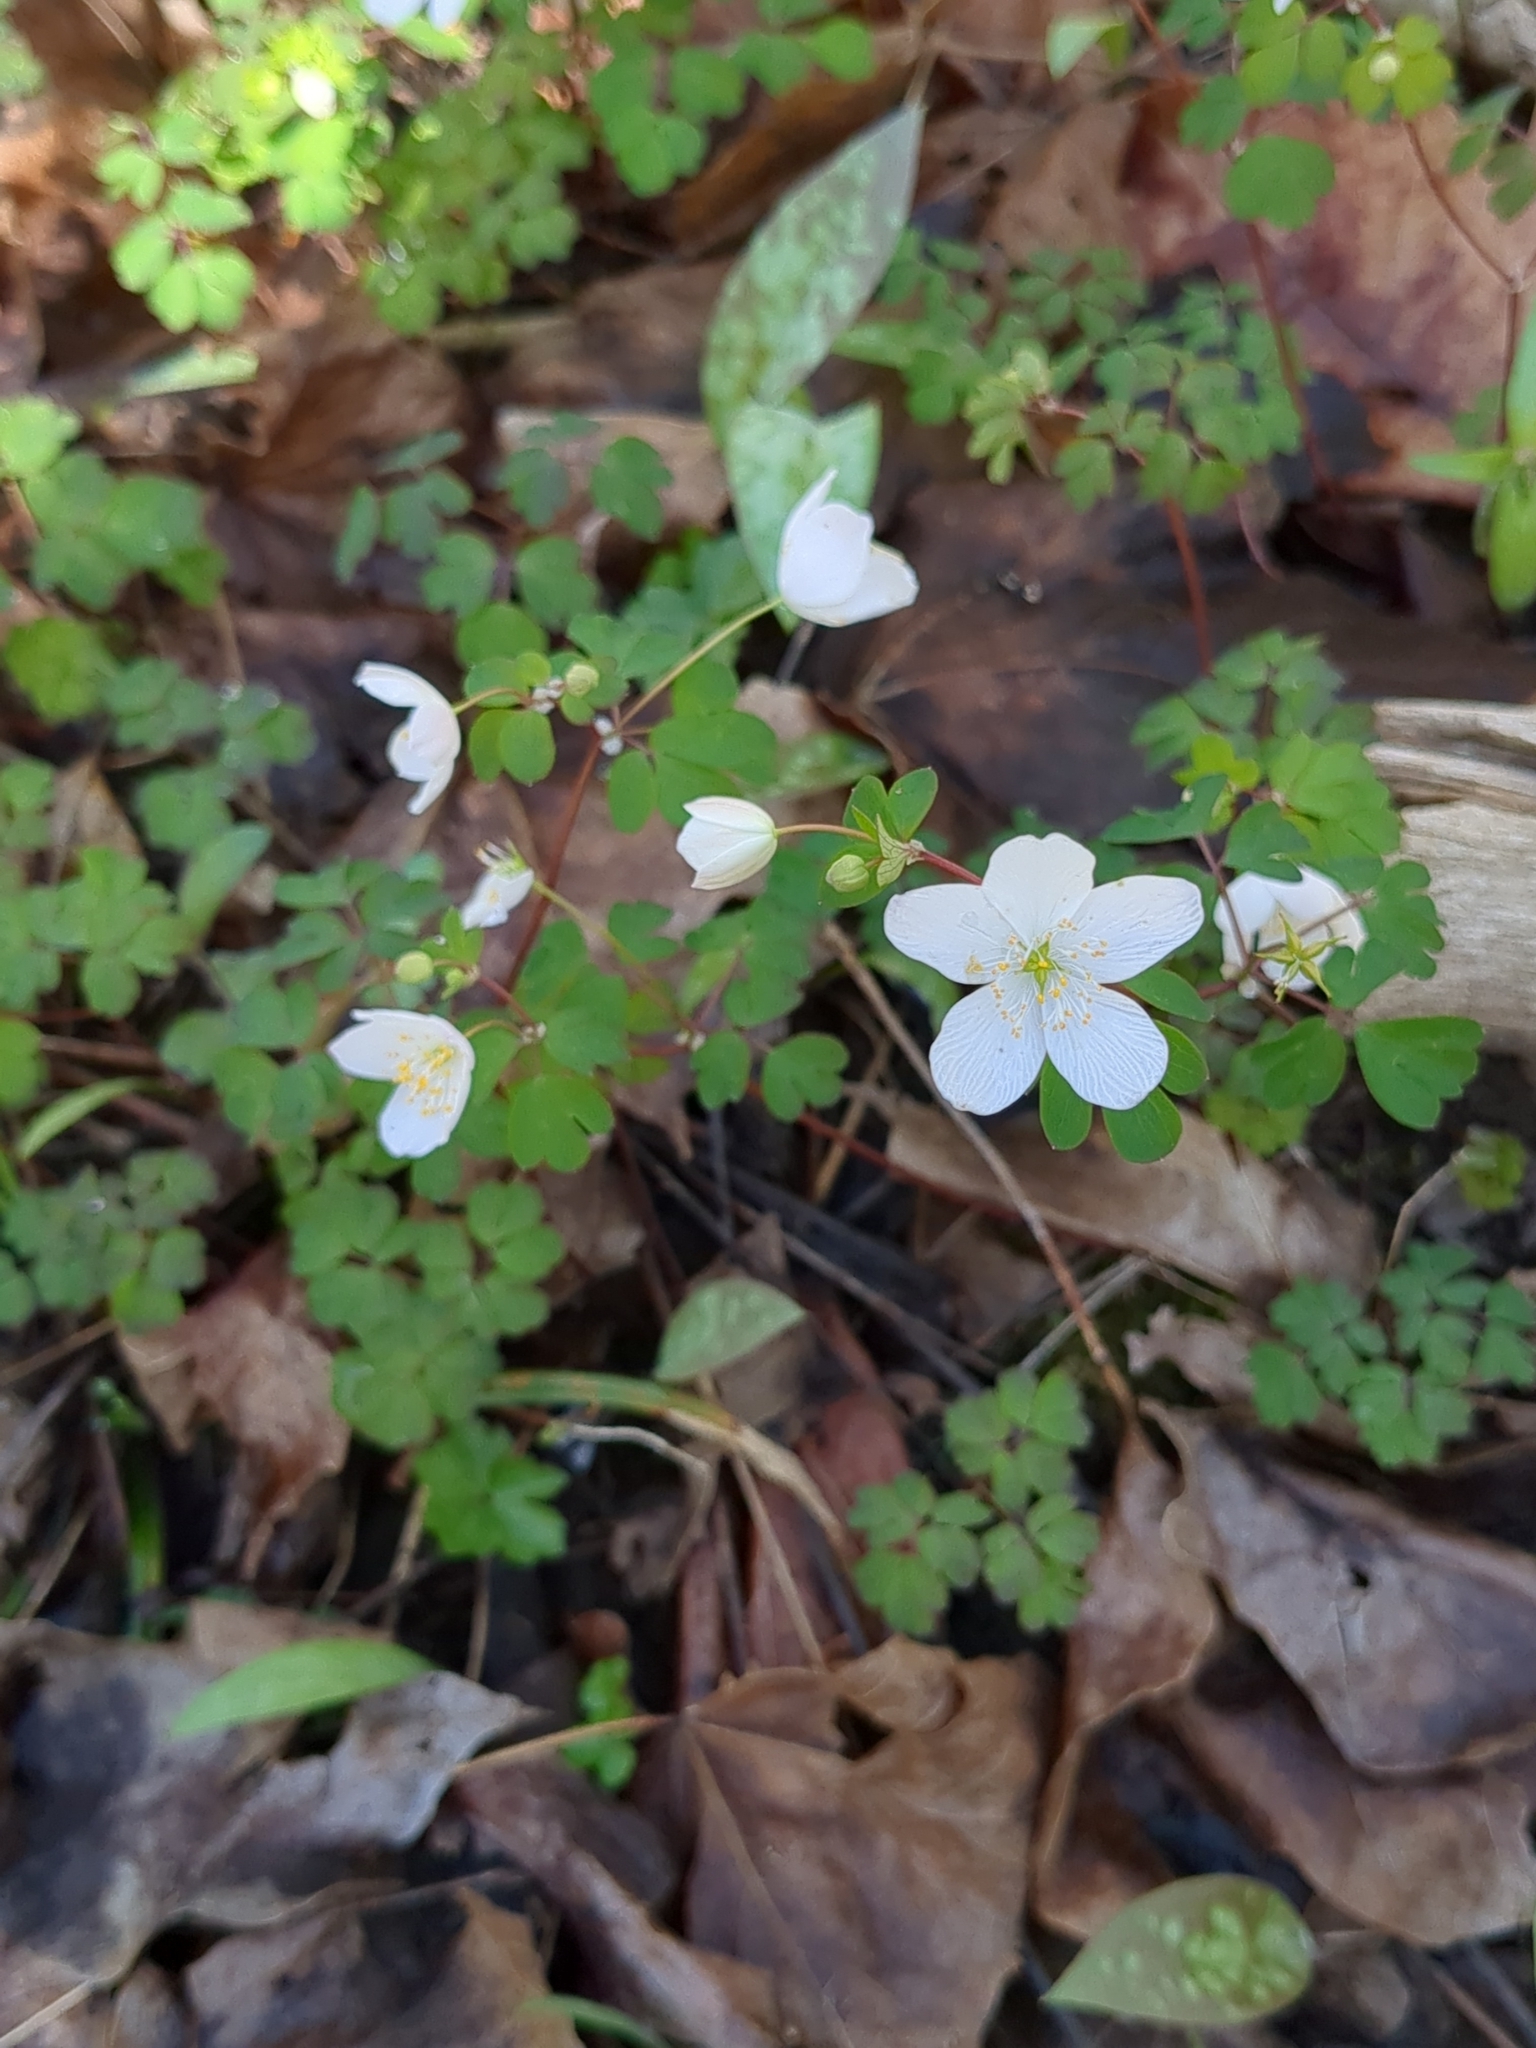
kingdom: Plantae
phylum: Tracheophyta
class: Magnoliopsida
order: Ranunculales
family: Ranunculaceae
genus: Enemion
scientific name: Enemion biternatum
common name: Eastern false rue-anemone
